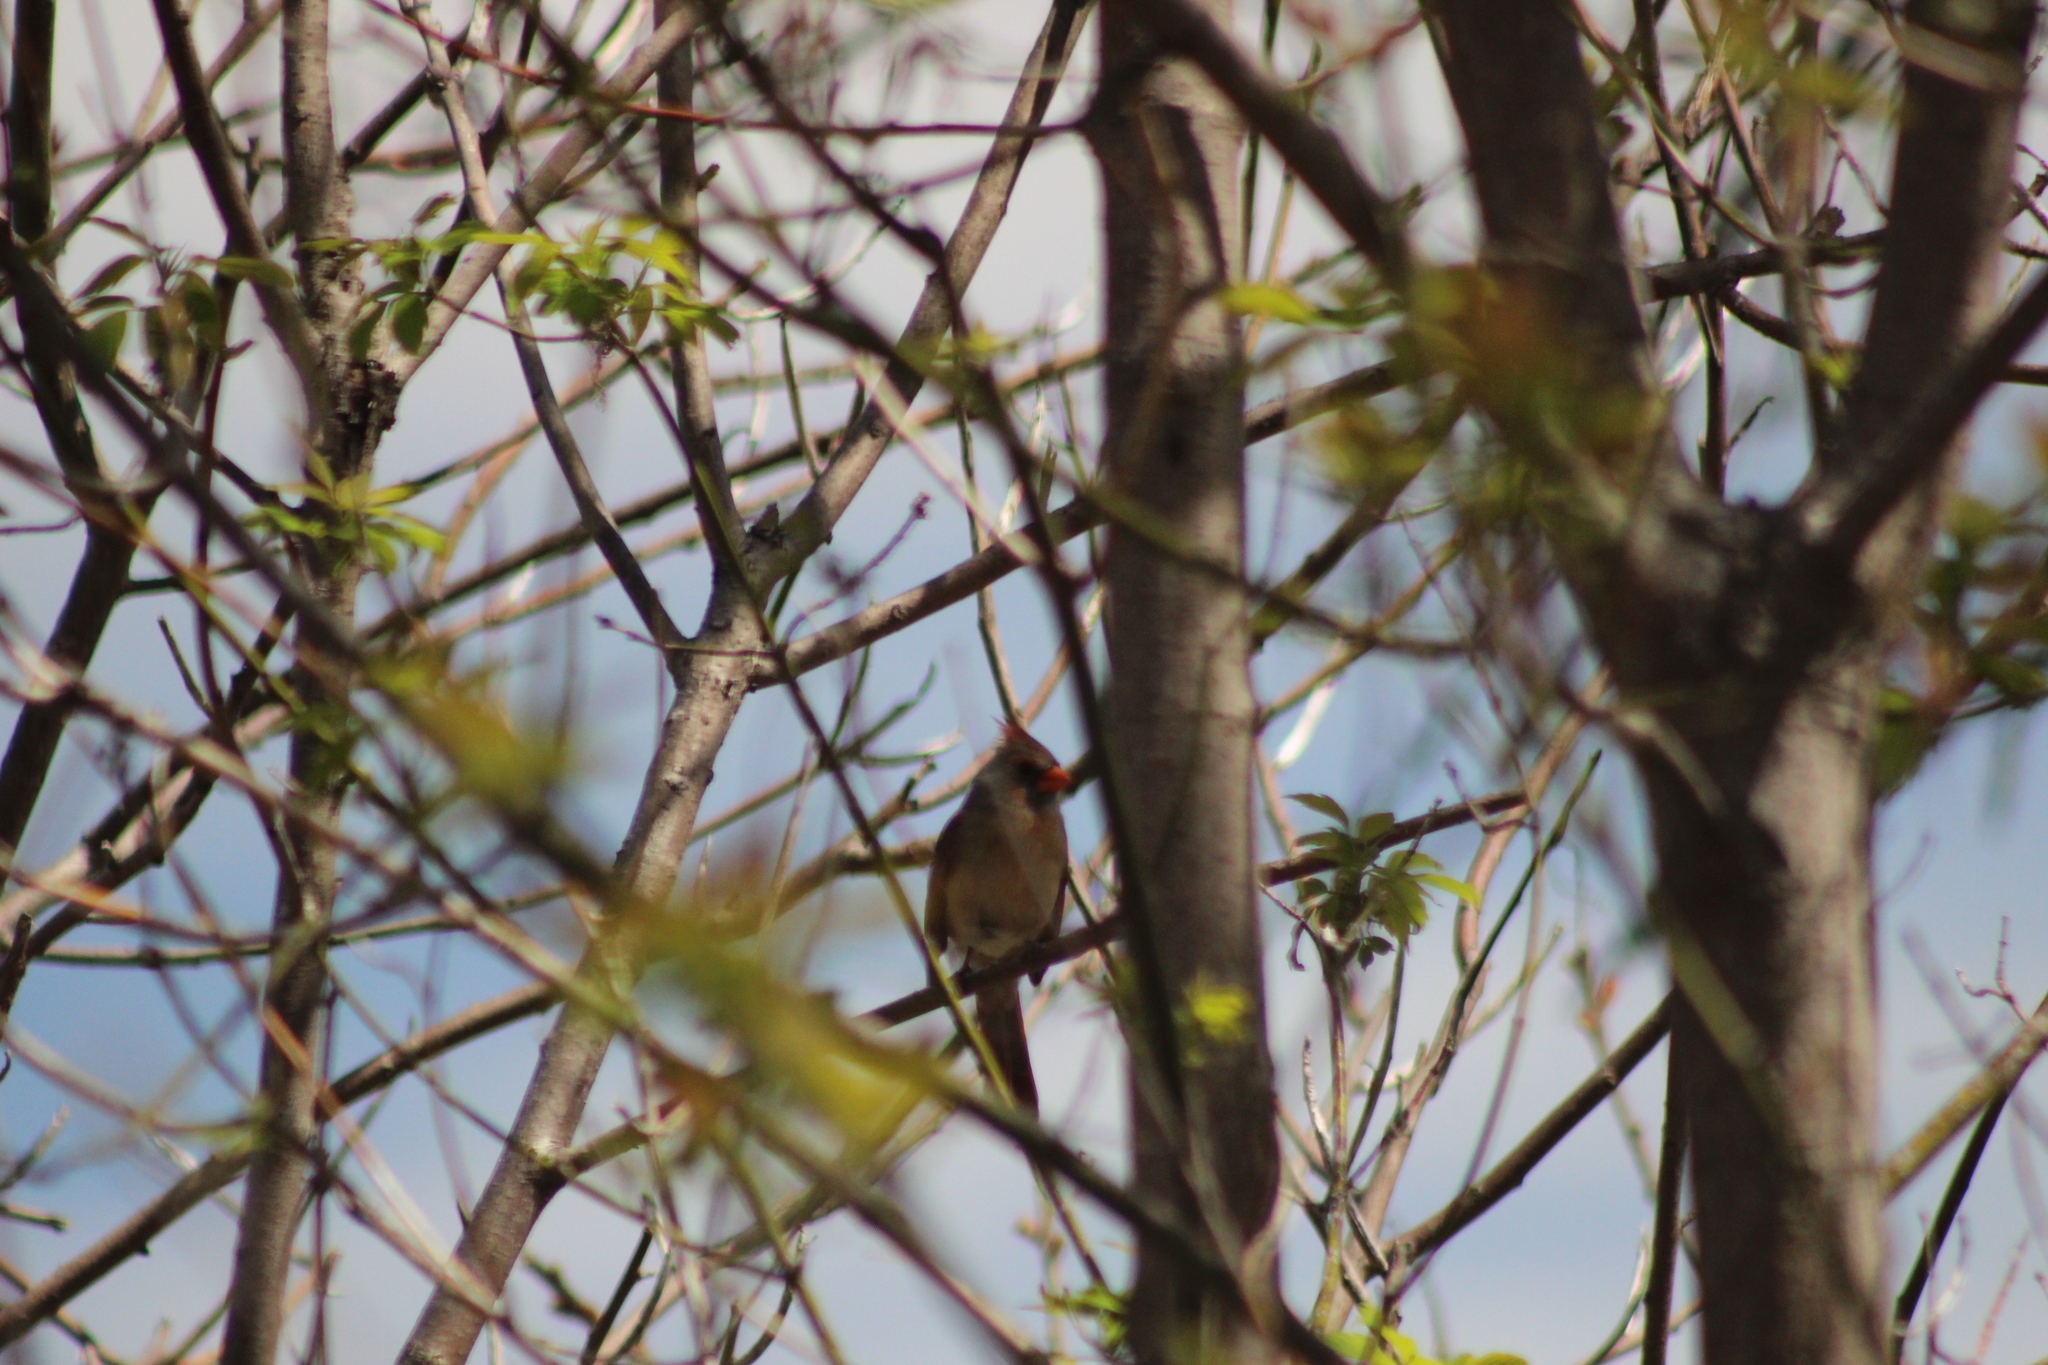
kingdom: Animalia
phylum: Chordata
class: Aves
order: Passeriformes
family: Cardinalidae
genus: Cardinalis
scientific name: Cardinalis cardinalis
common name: Northern cardinal
